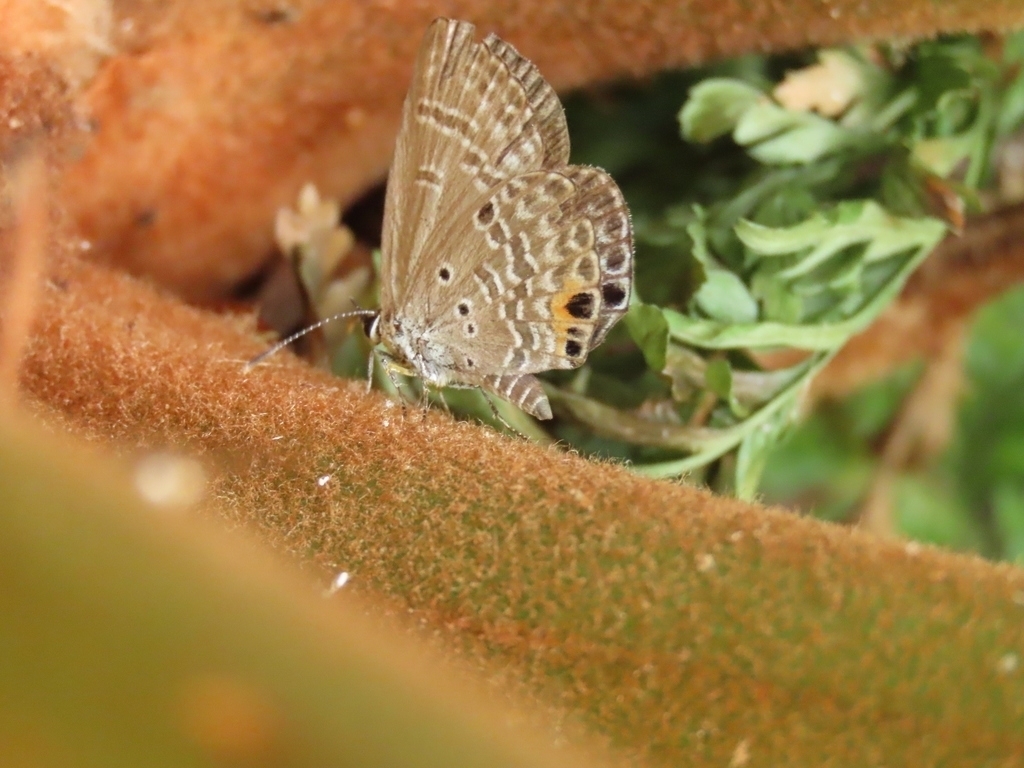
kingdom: Animalia
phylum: Arthropoda
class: Insecta
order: Lepidoptera
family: Lycaenidae
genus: Luthrodes
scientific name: Luthrodes pandava
